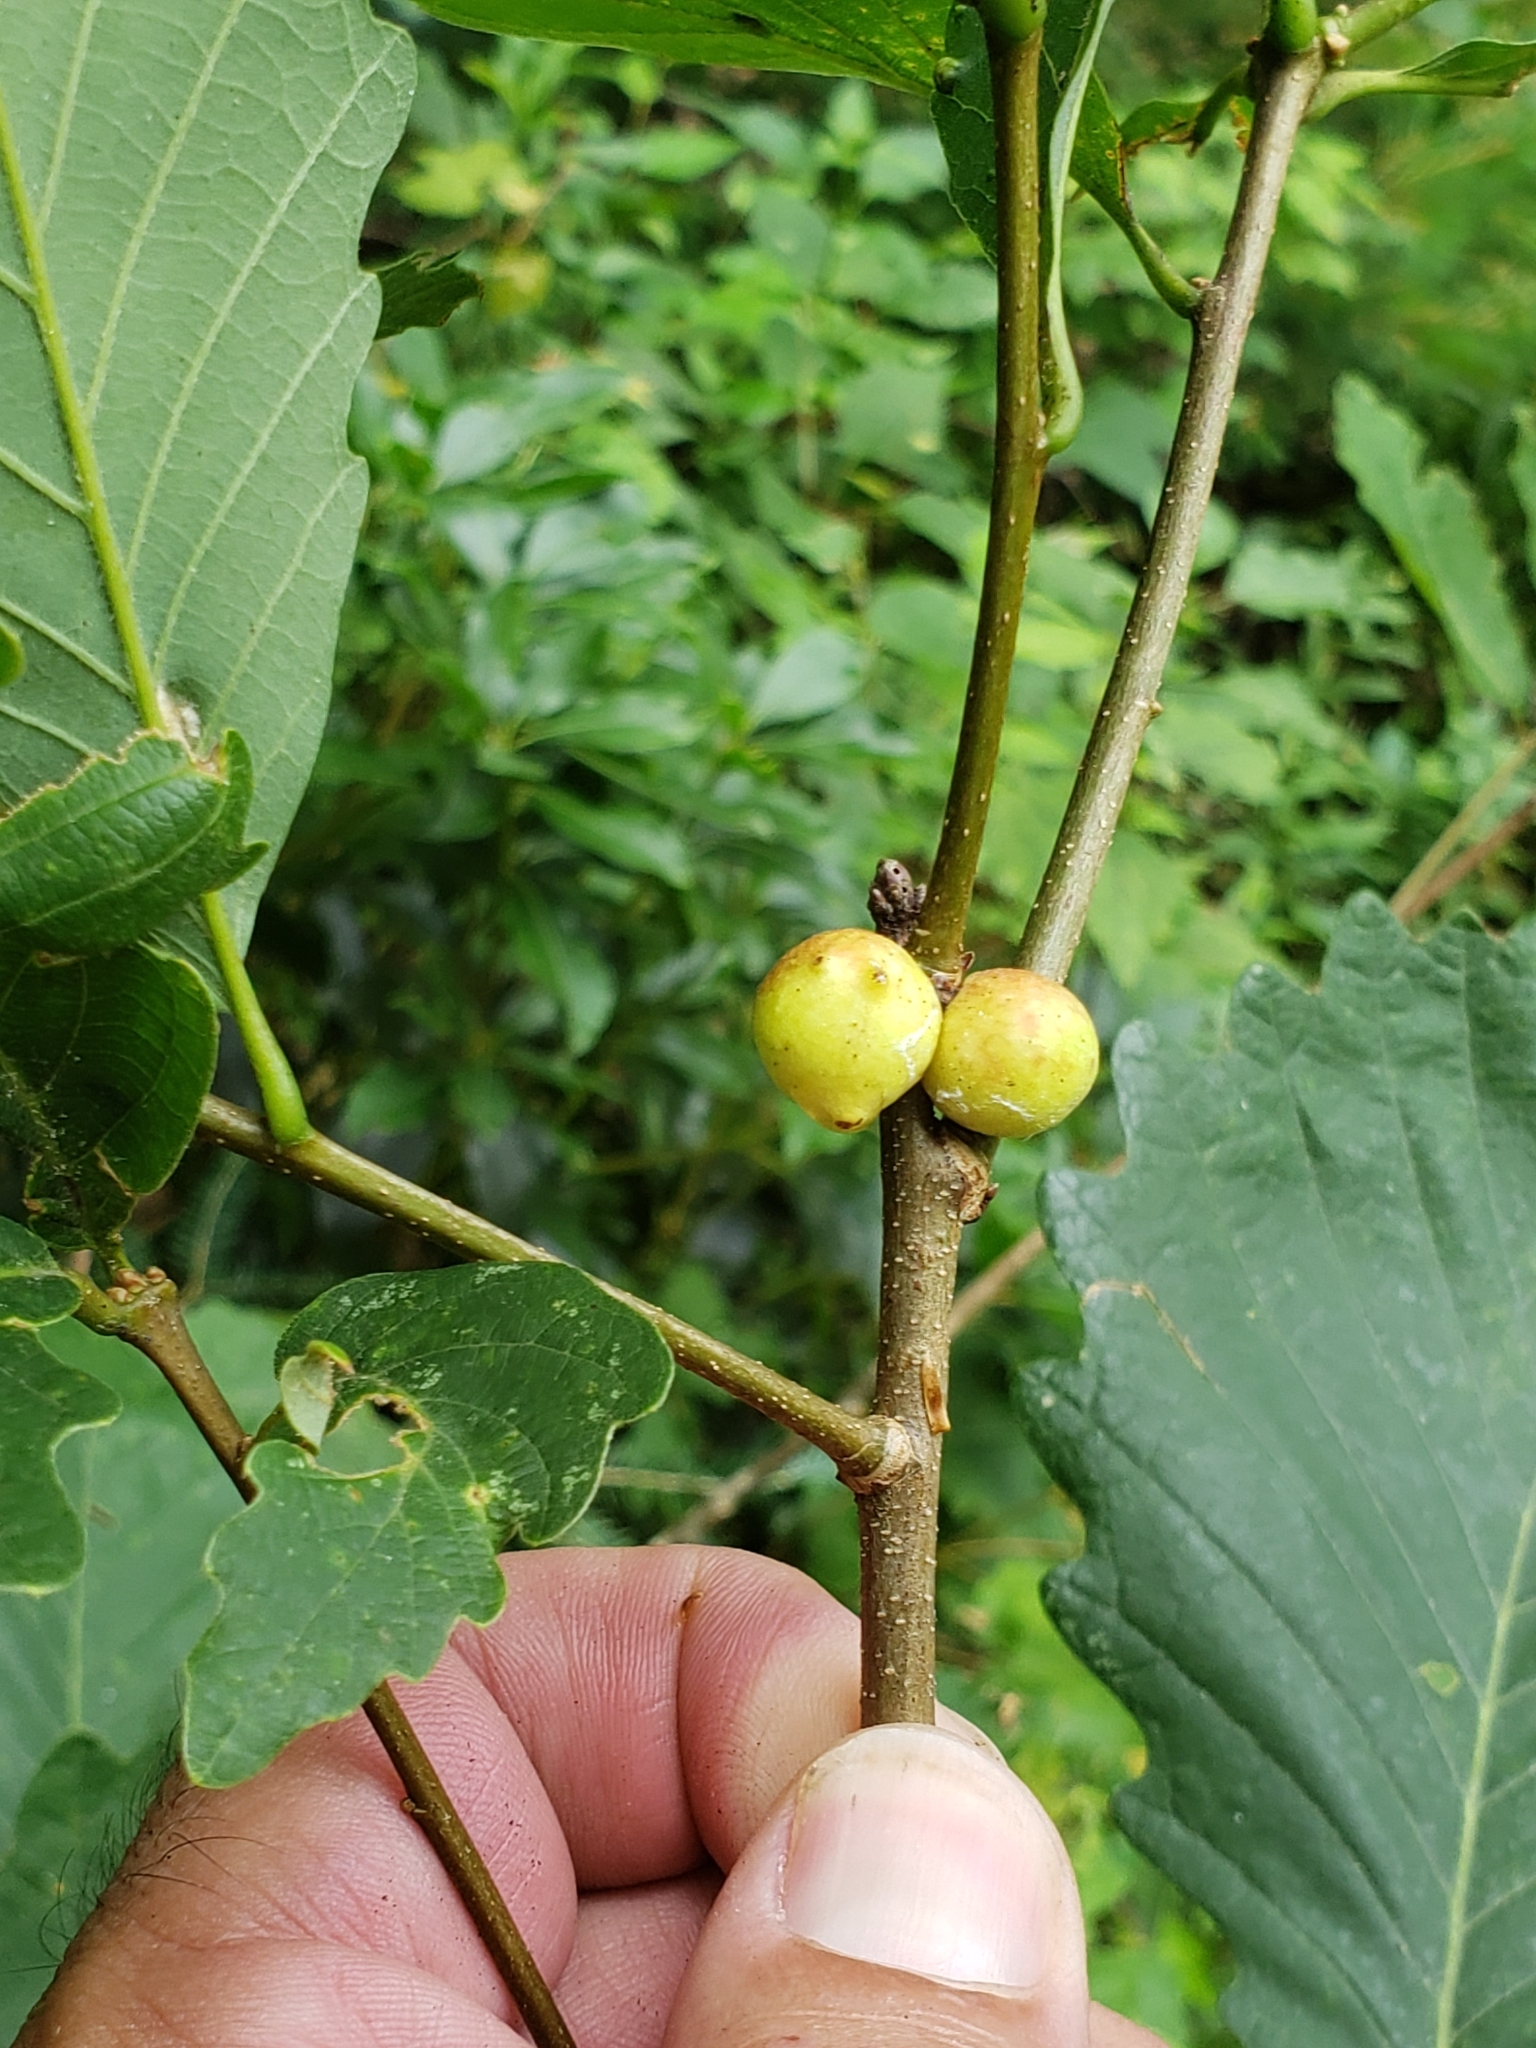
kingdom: Animalia
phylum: Arthropoda
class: Insecta
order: Hymenoptera
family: Cynipidae
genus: Disholcaspis
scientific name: Disholcaspis quercusglobulus
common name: Round bullet gall wasp
